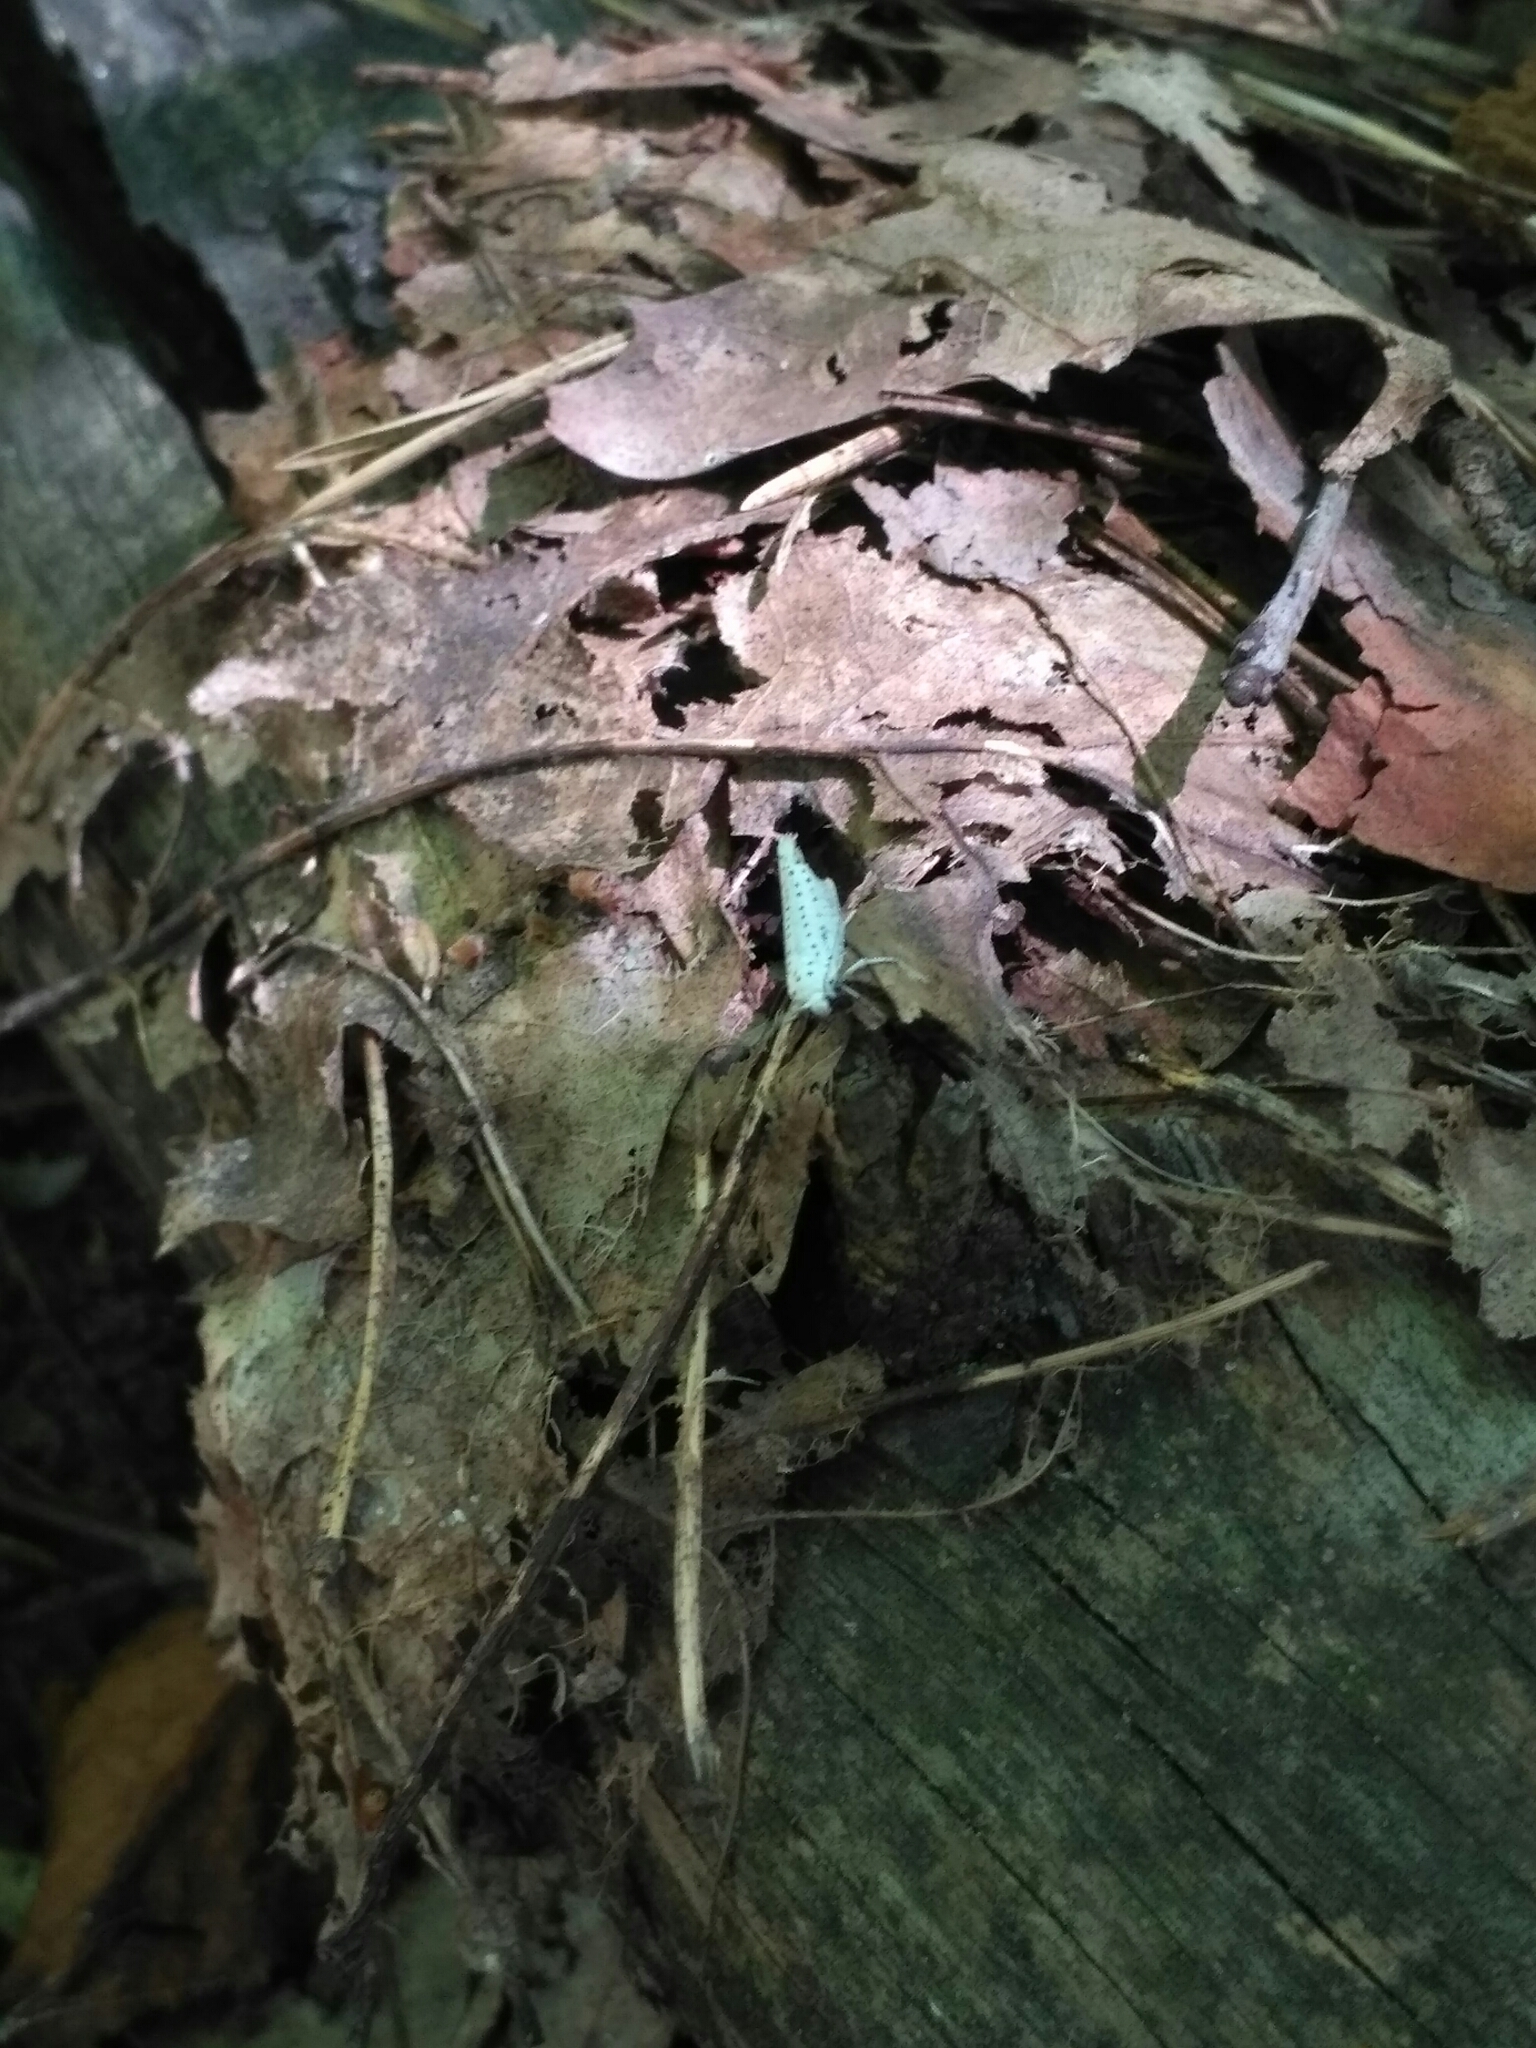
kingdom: Animalia
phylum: Arthropoda
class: Insecta
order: Lepidoptera
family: Yponomeutidae
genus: Yponomeuta
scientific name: Yponomeuta evonymella
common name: Bird-cherry ermine
